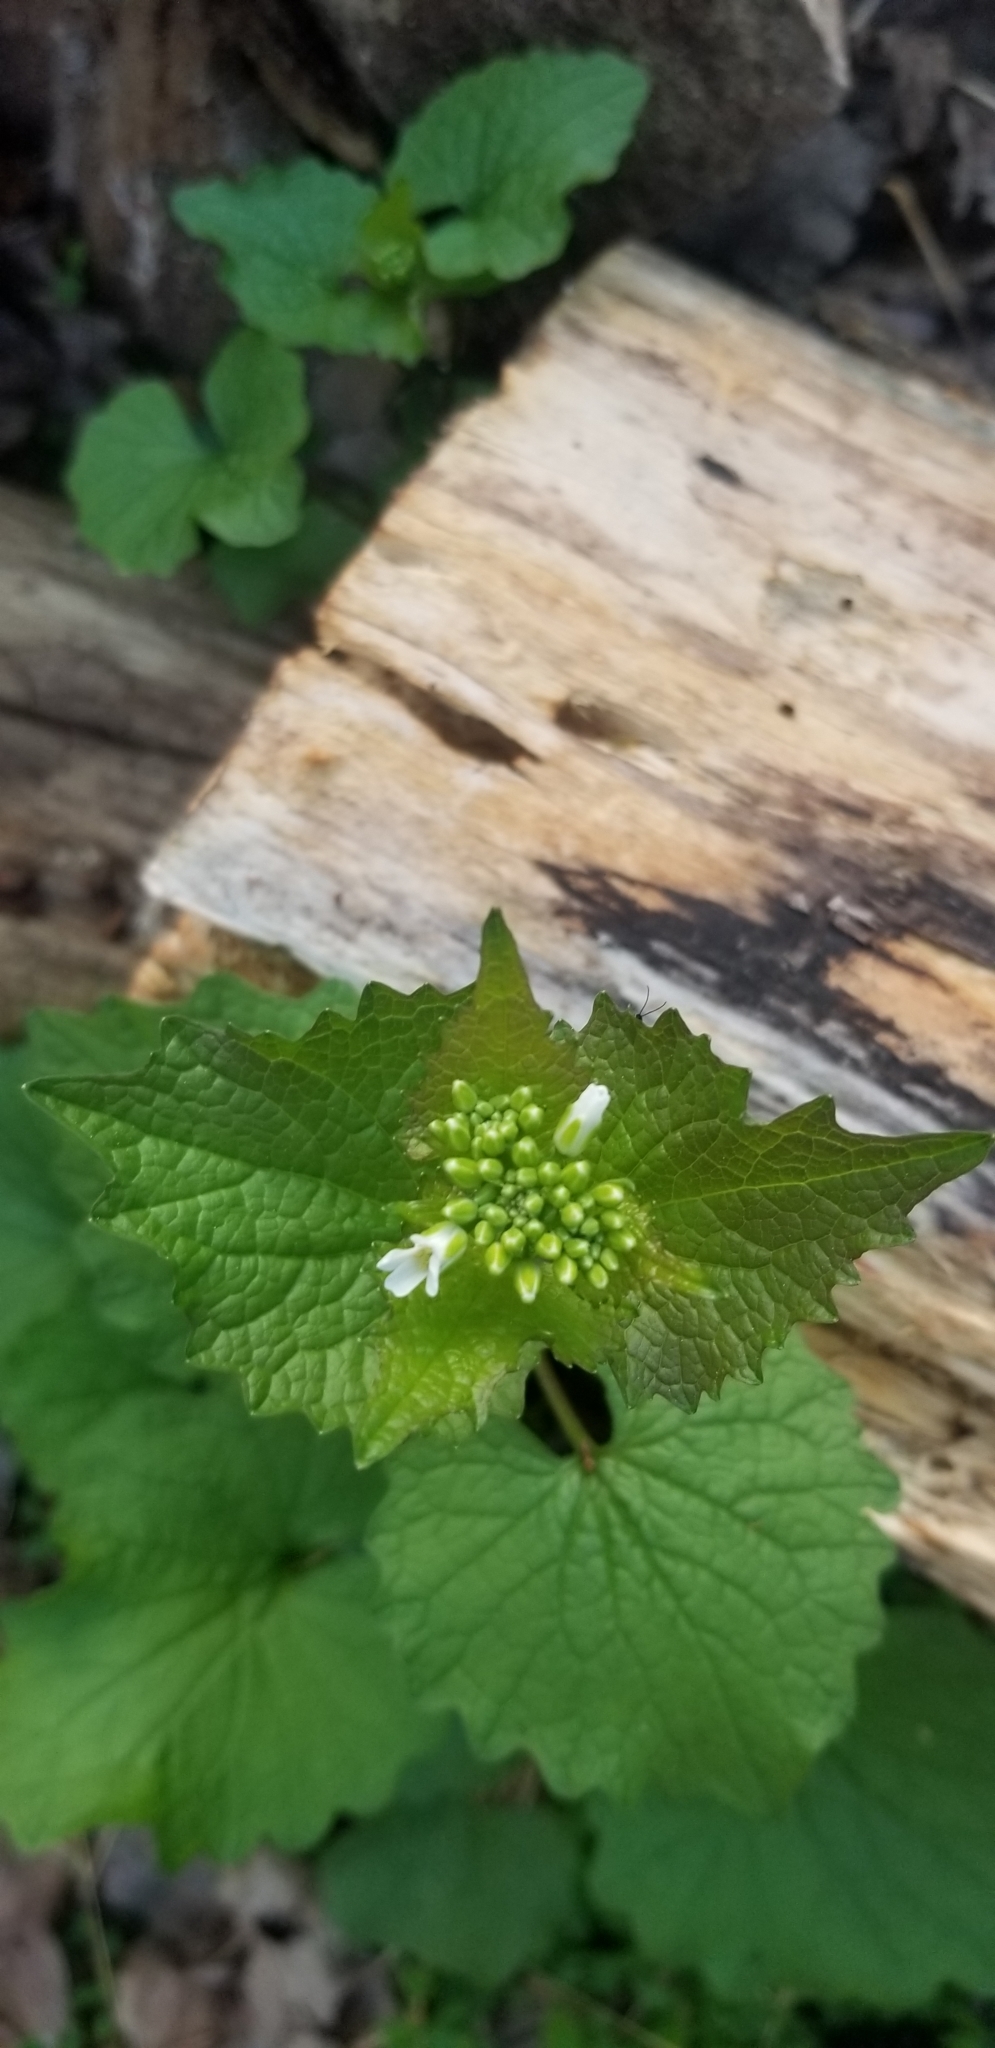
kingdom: Plantae
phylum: Tracheophyta
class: Magnoliopsida
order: Brassicales
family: Brassicaceae
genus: Alliaria
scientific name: Alliaria petiolata
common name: Garlic mustard
